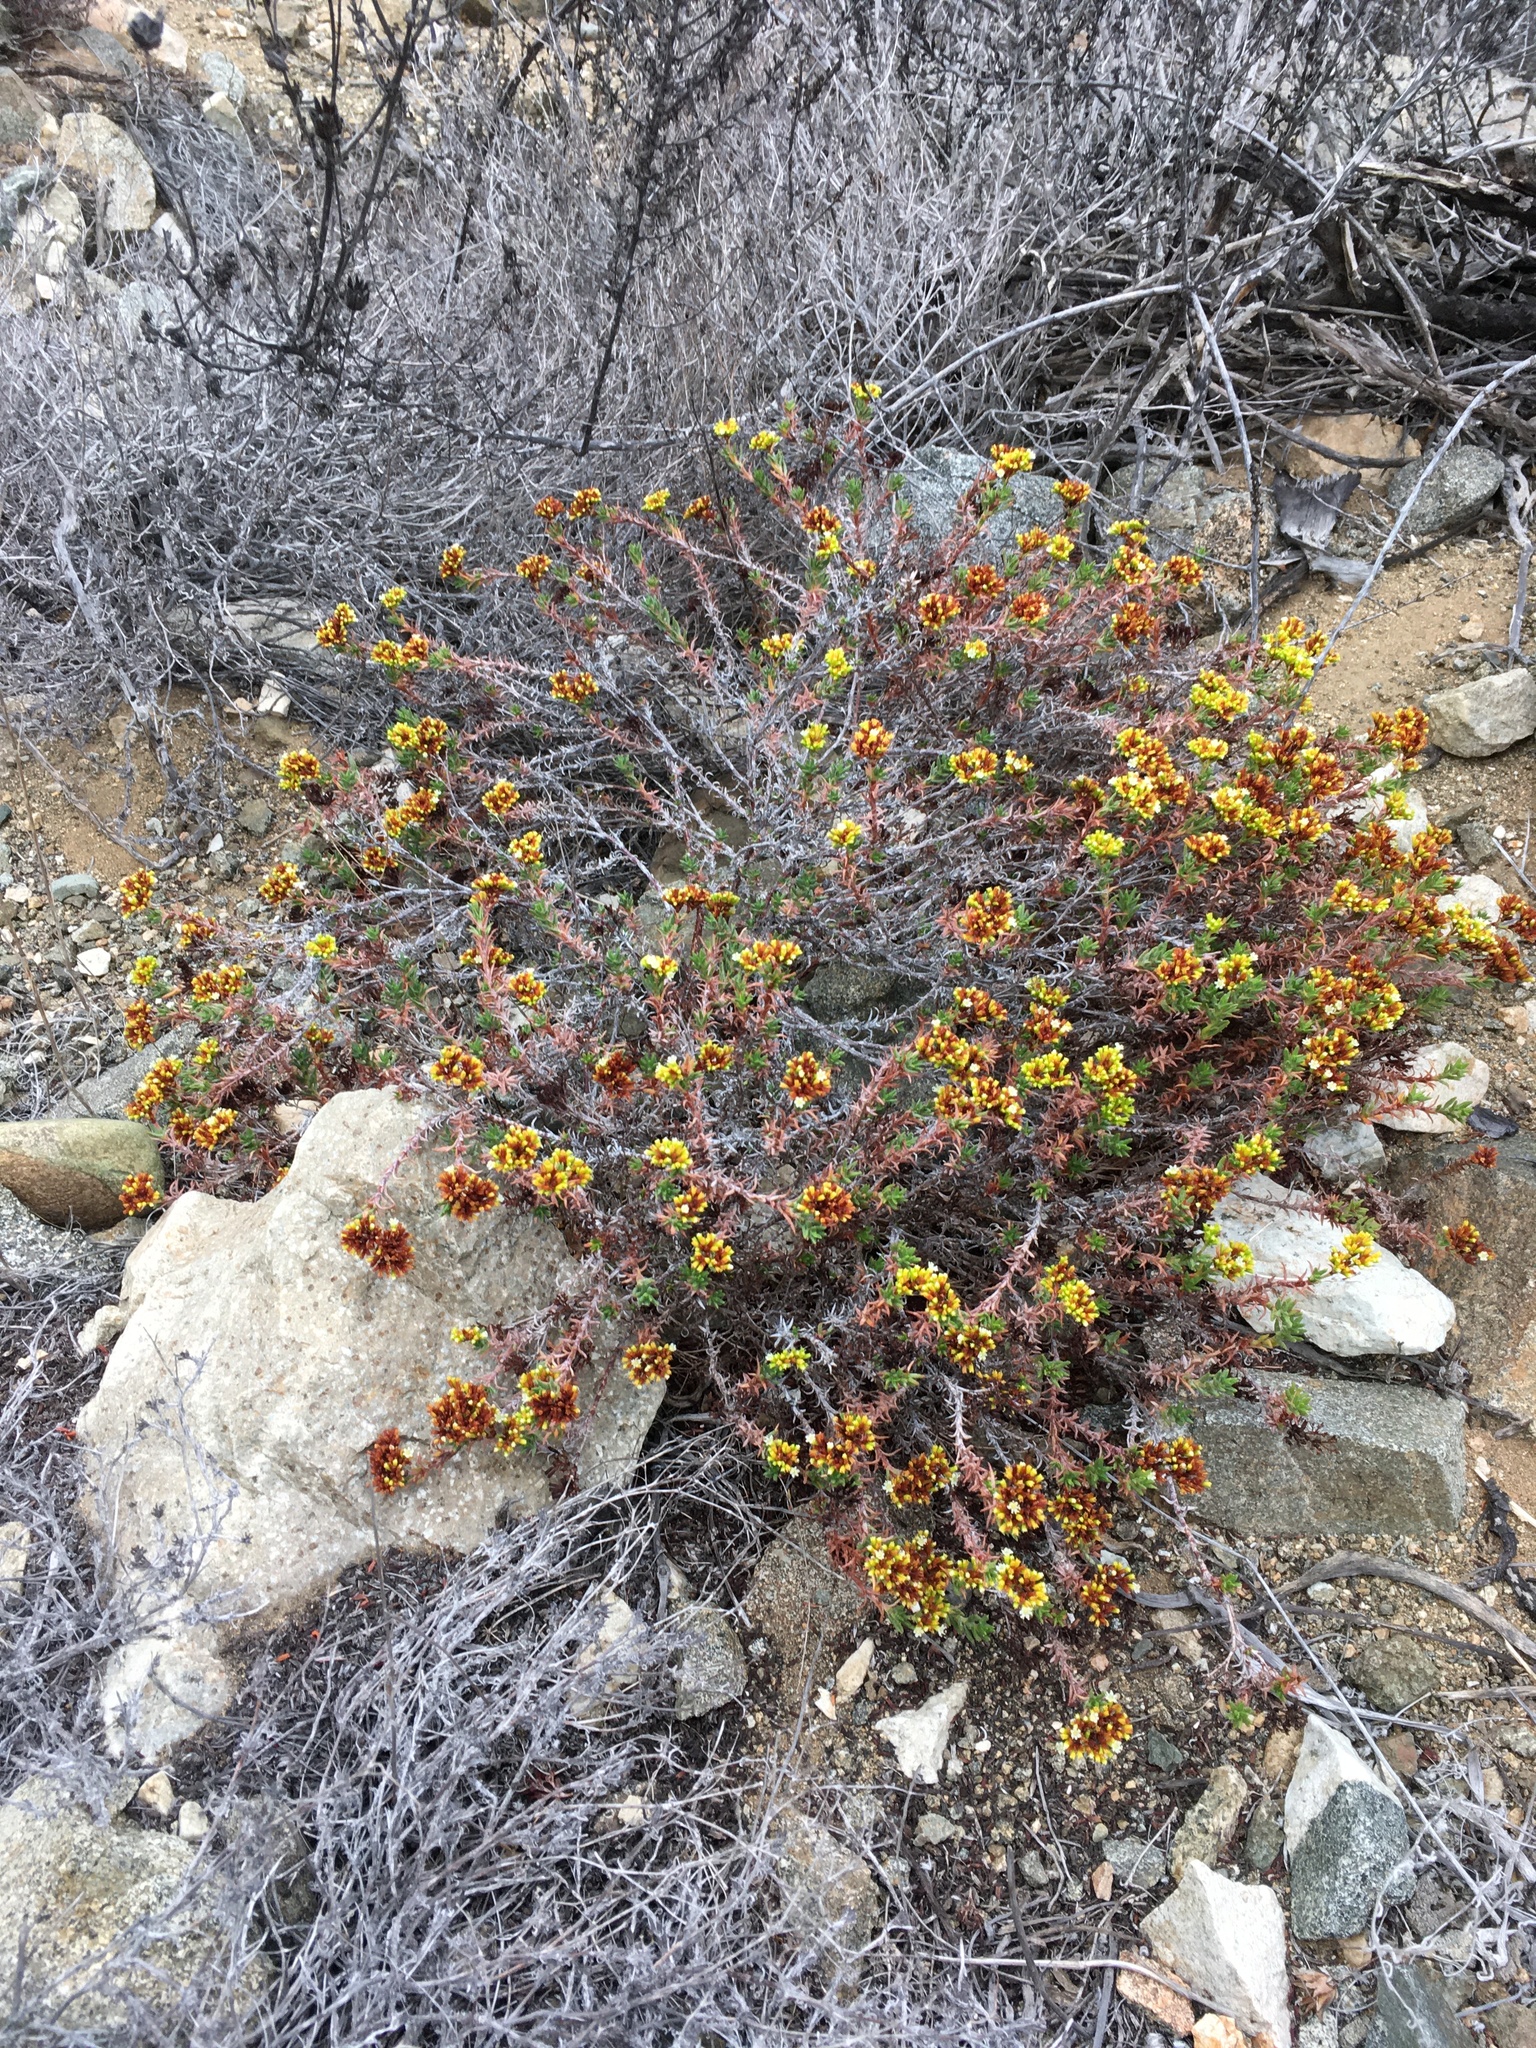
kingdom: Plantae
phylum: Tracheophyta
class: Magnoliopsida
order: Caryophyllales
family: Polygonaceae
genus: Chorizanthe
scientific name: Chorizanthe flavescens
